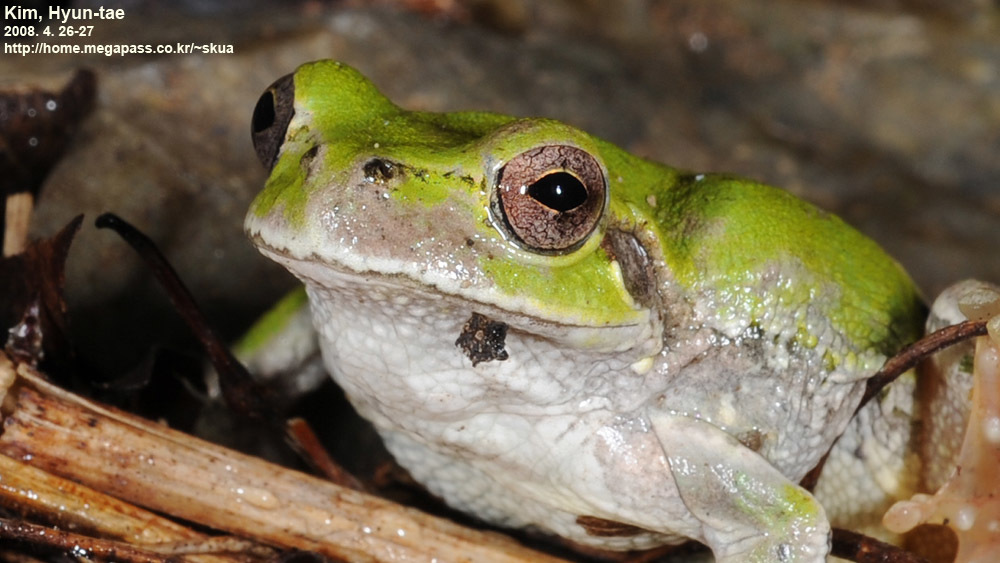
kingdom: Animalia
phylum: Chordata
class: Amphibia
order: Anura
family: Hylidae
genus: Dryophytes
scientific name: Dryophytes japonicus
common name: Japanese treefrog
